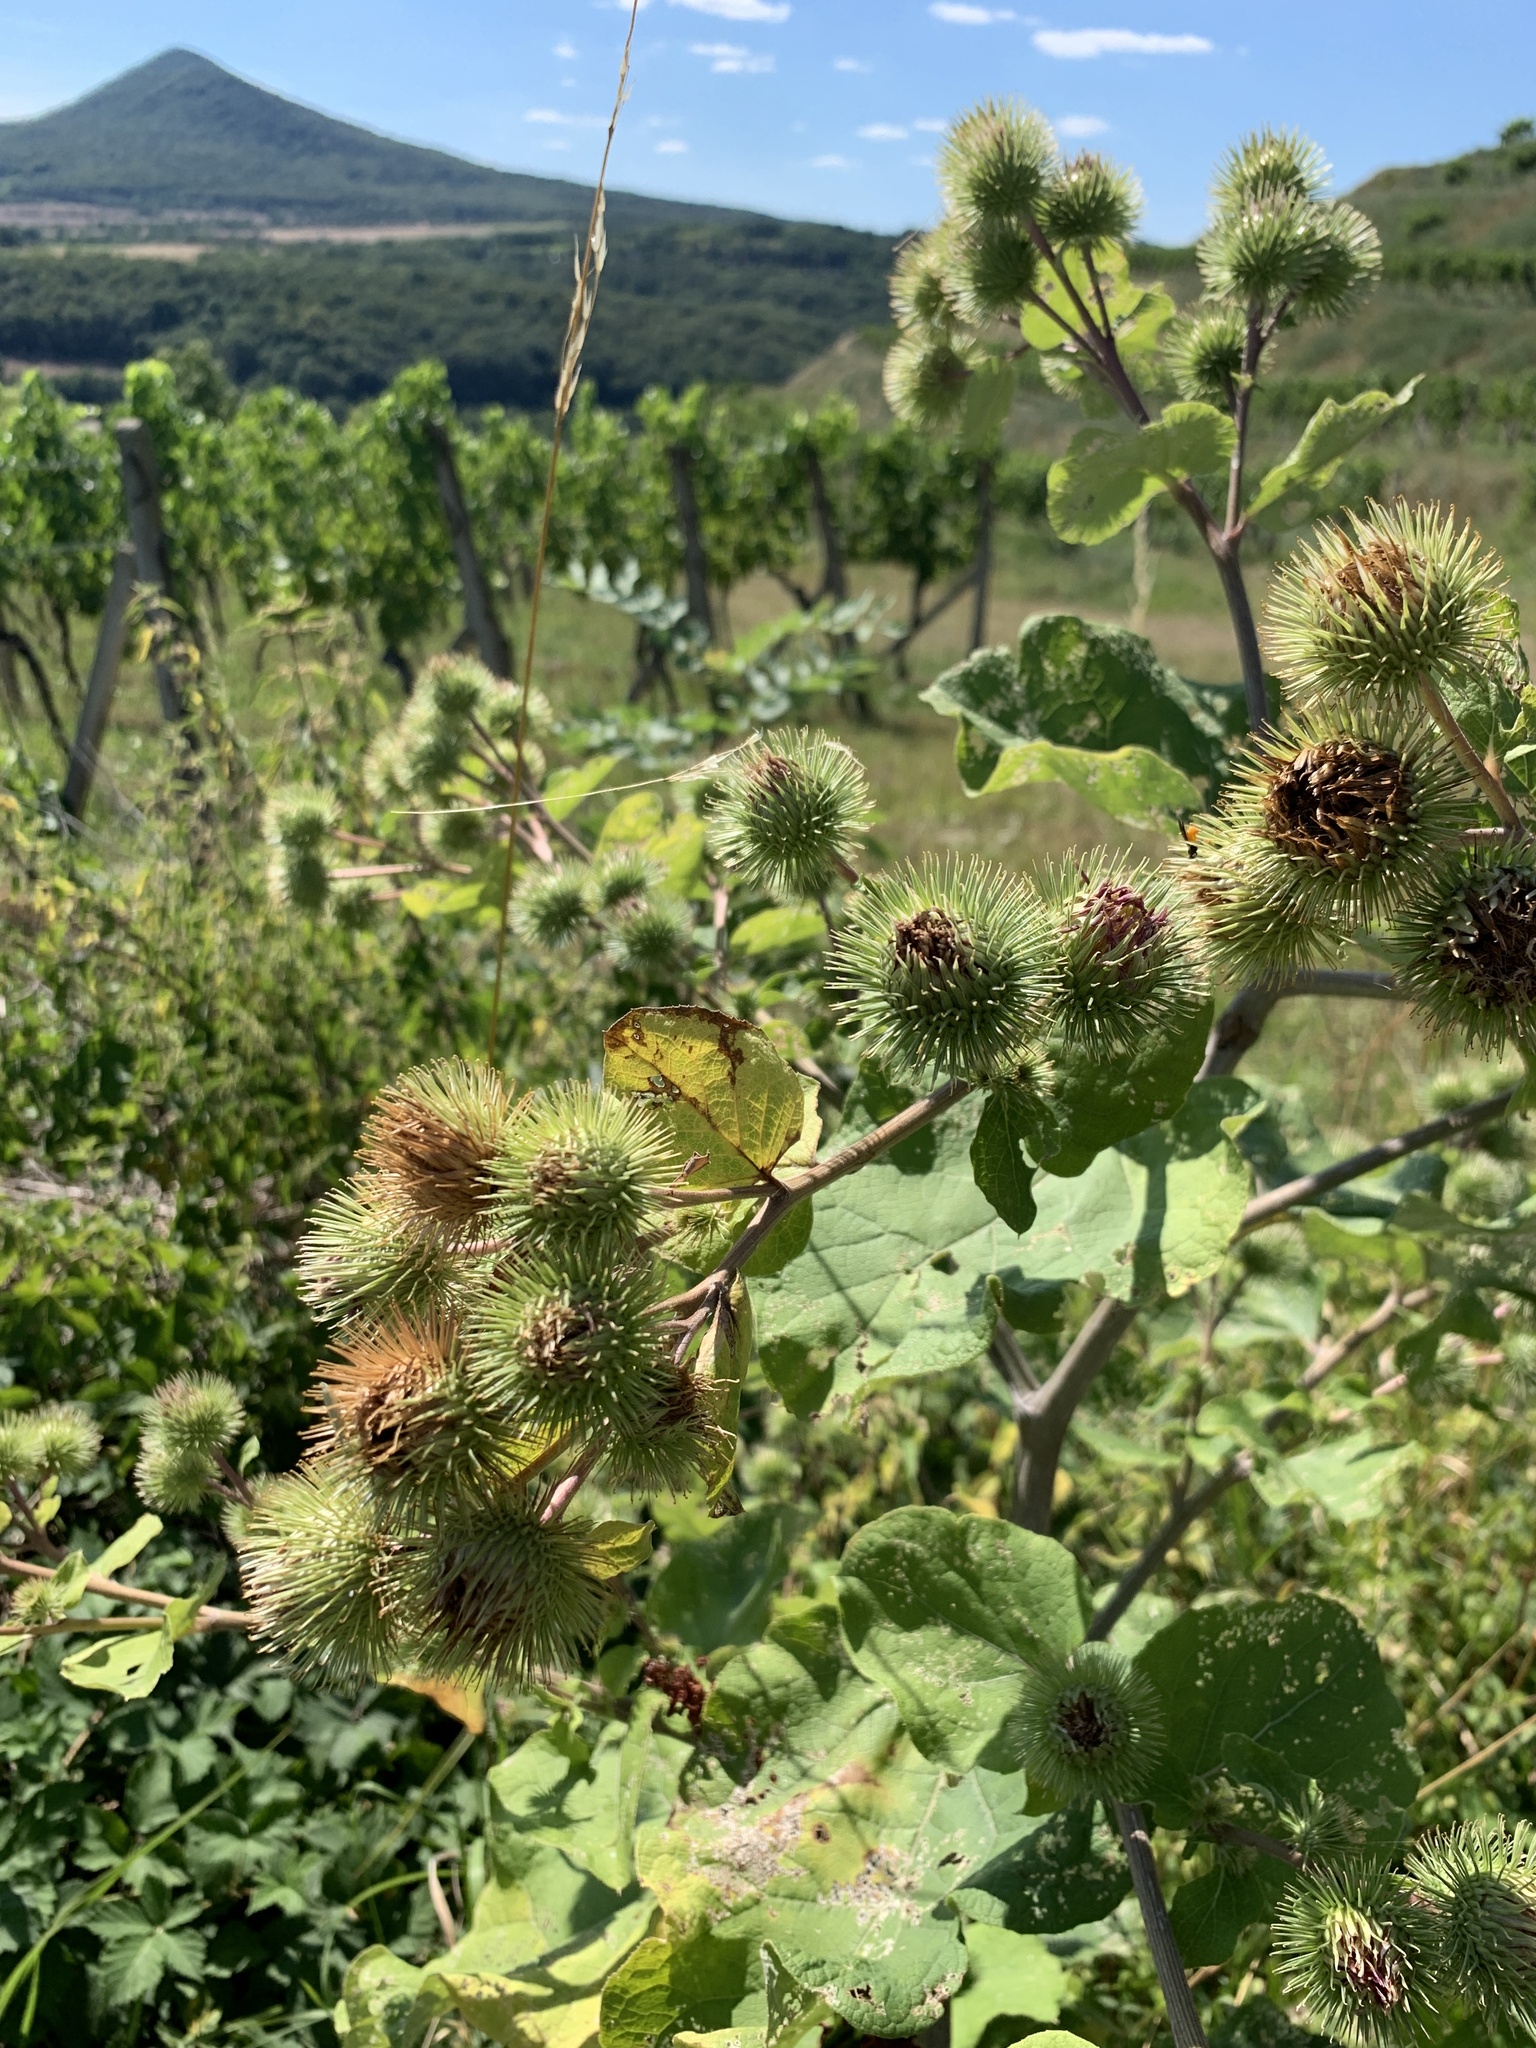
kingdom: Plantae
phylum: Tracheophyta
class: Magnoliopsida
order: Asterales
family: Asteraceae
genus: Arctium
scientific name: Arctium lappa
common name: Greater burdock
